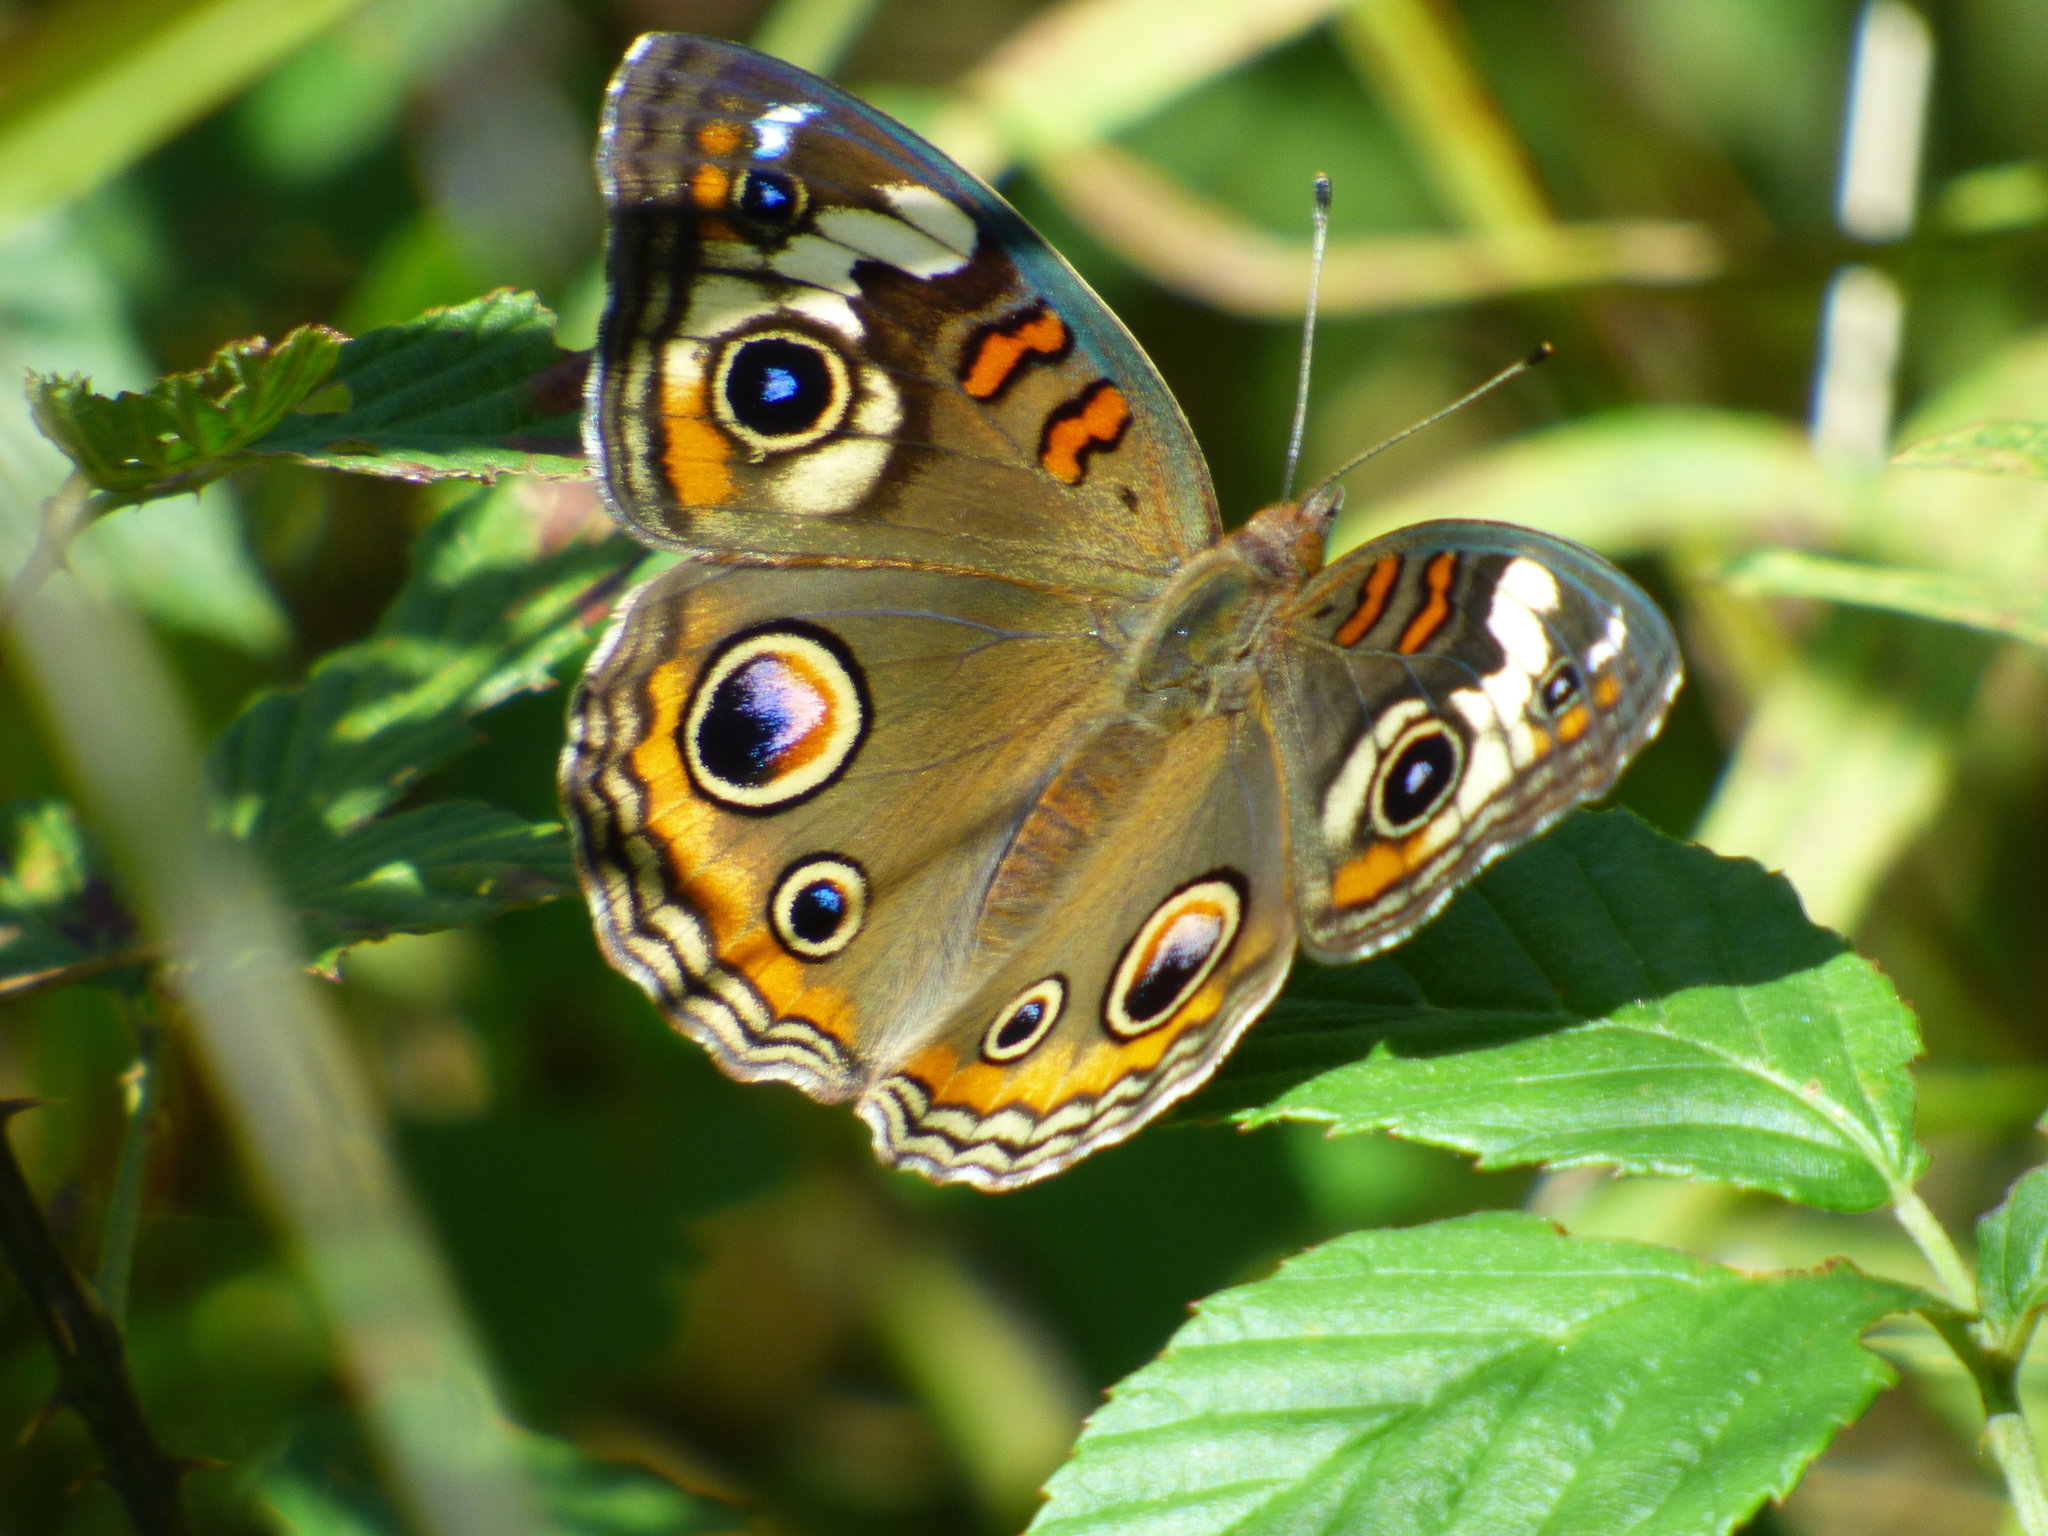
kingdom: Animalia
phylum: Arthropoda
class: Insecta
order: Lepidoptera
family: Nymphalidae
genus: Junonia
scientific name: Junonia coenia
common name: Common buckeye
